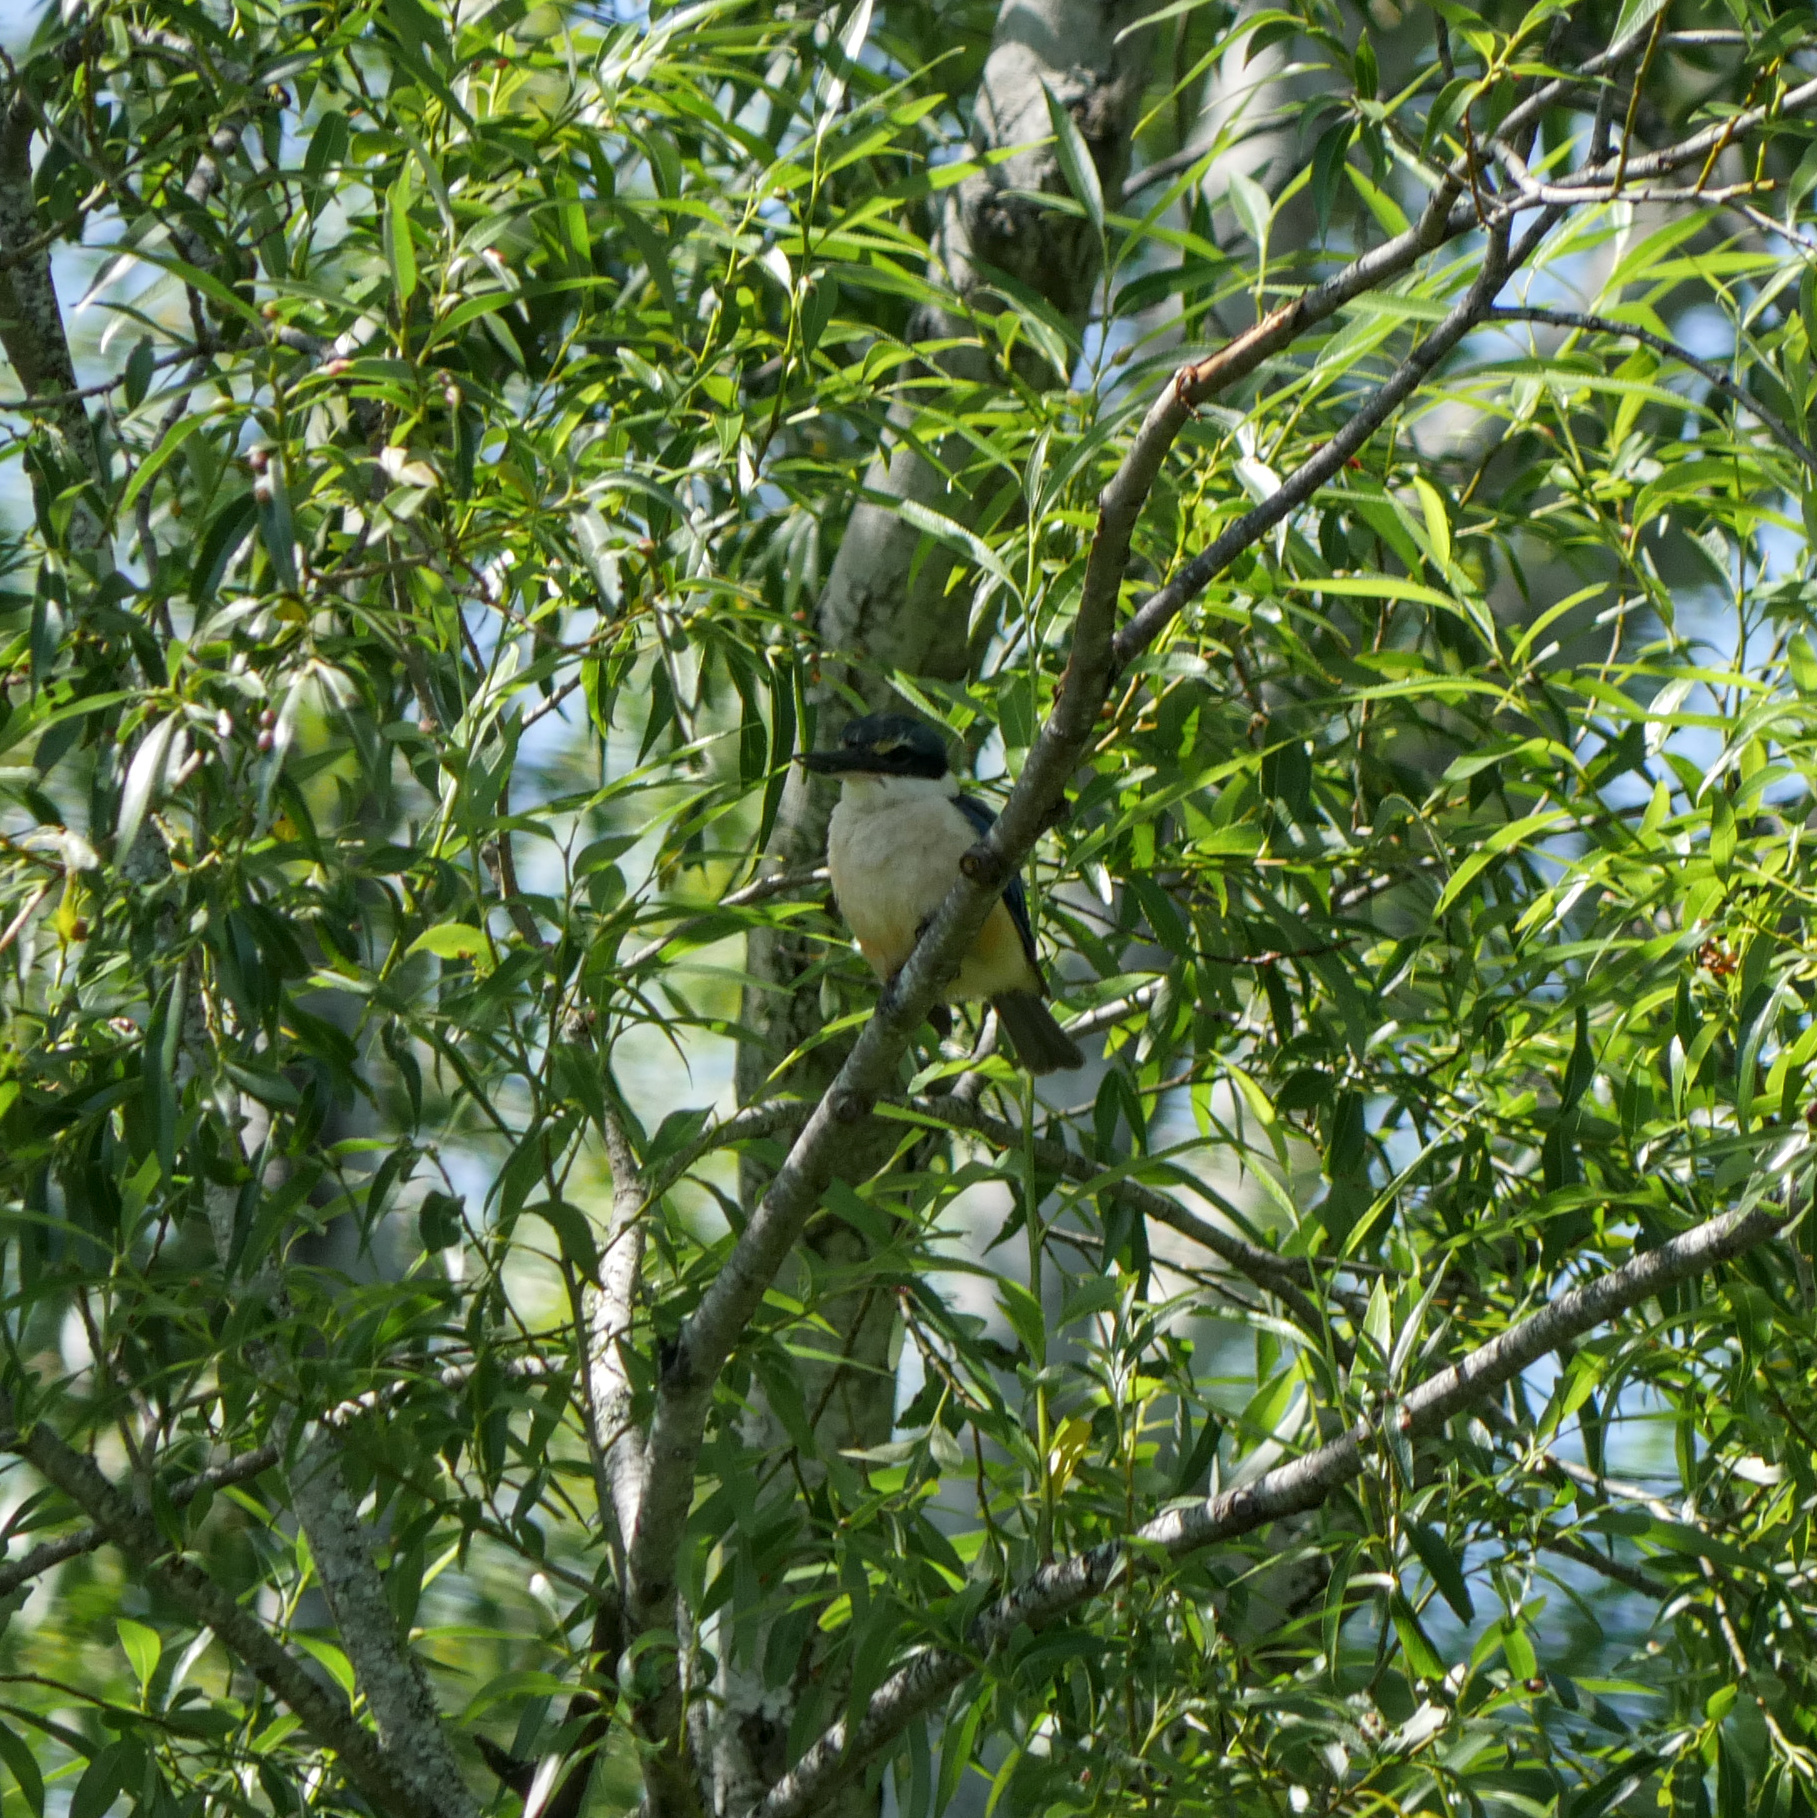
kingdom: Animalia
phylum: Chordata
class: Aves
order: Coraciiformes
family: Alcedinidae
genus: Todiramphus
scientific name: Todiramphus sanctus
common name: Sacred kingfisher
